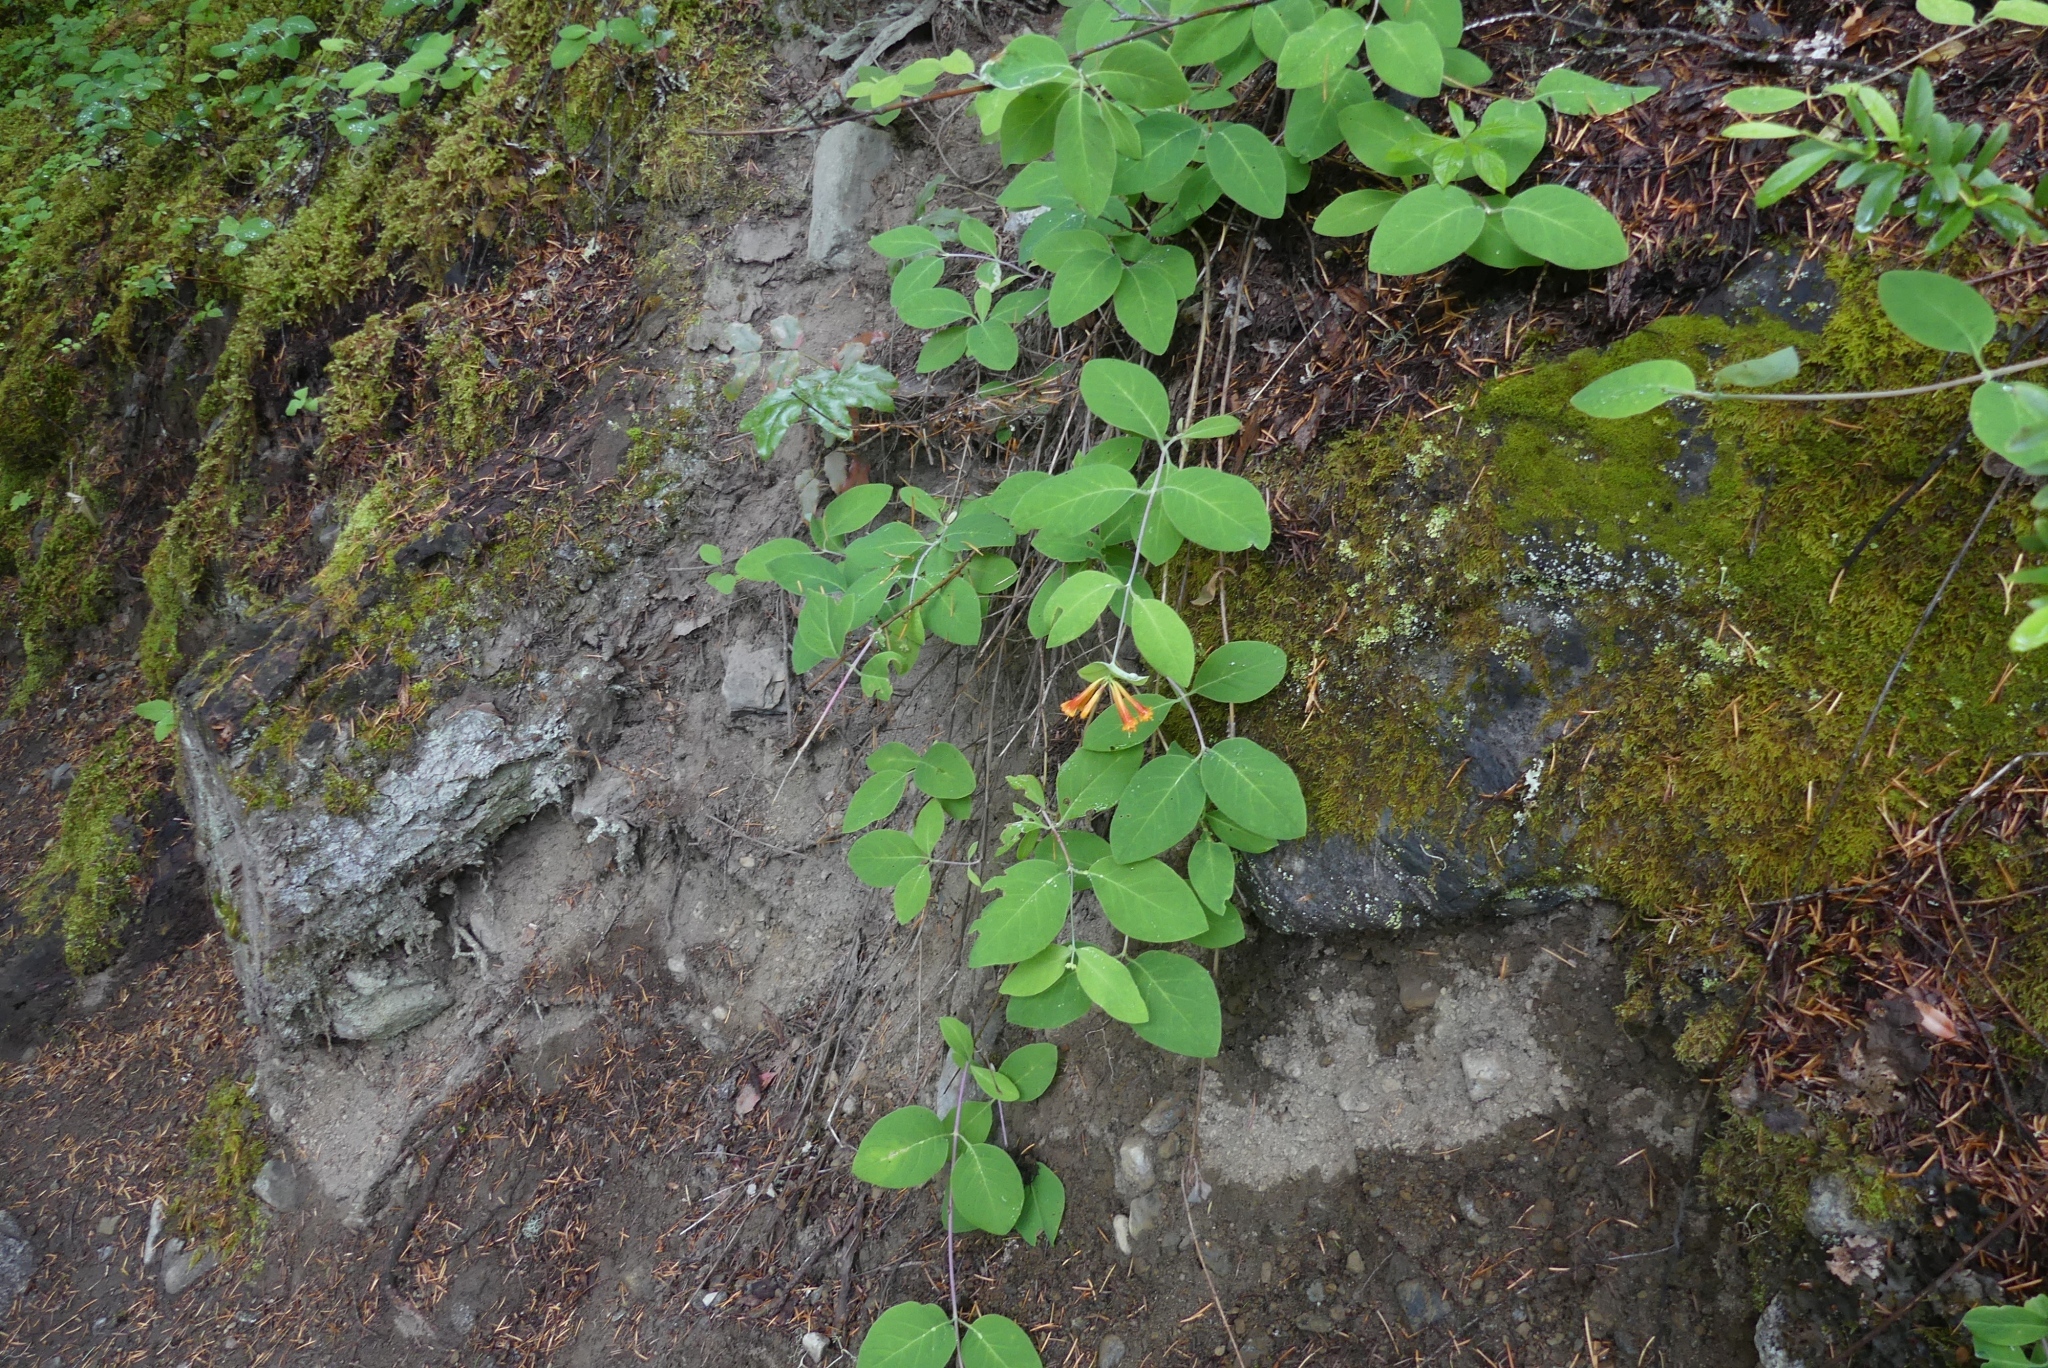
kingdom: Plantae
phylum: Tracheophyta
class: Magnoliopsida
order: Dipsacales
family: Caprifoliaceae
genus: Lonicera
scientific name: Lonicera ciliosa
